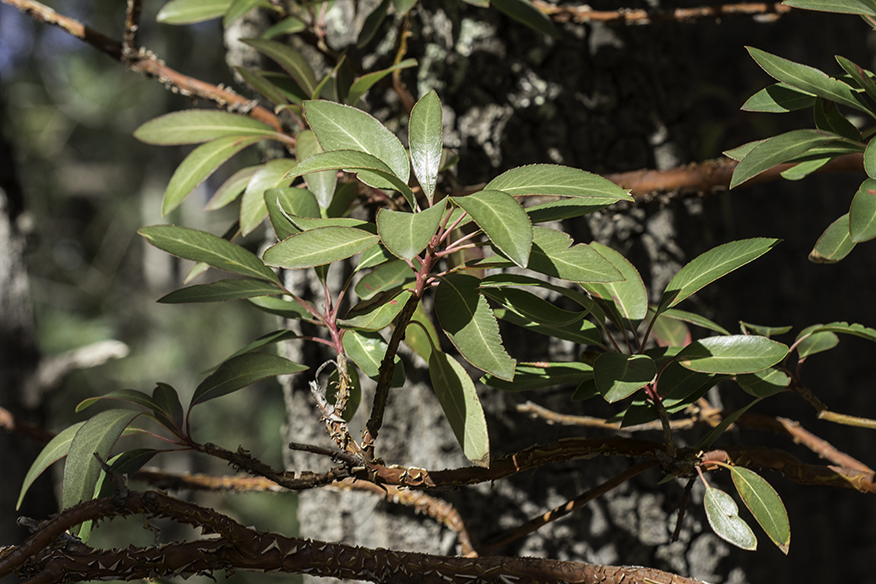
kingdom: Plantae
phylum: Tracheophyta
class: Magnoliopsida
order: Ericales
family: Ericaceae
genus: Arbutus
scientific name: Arbutus arizonica
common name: Arizona madrone
